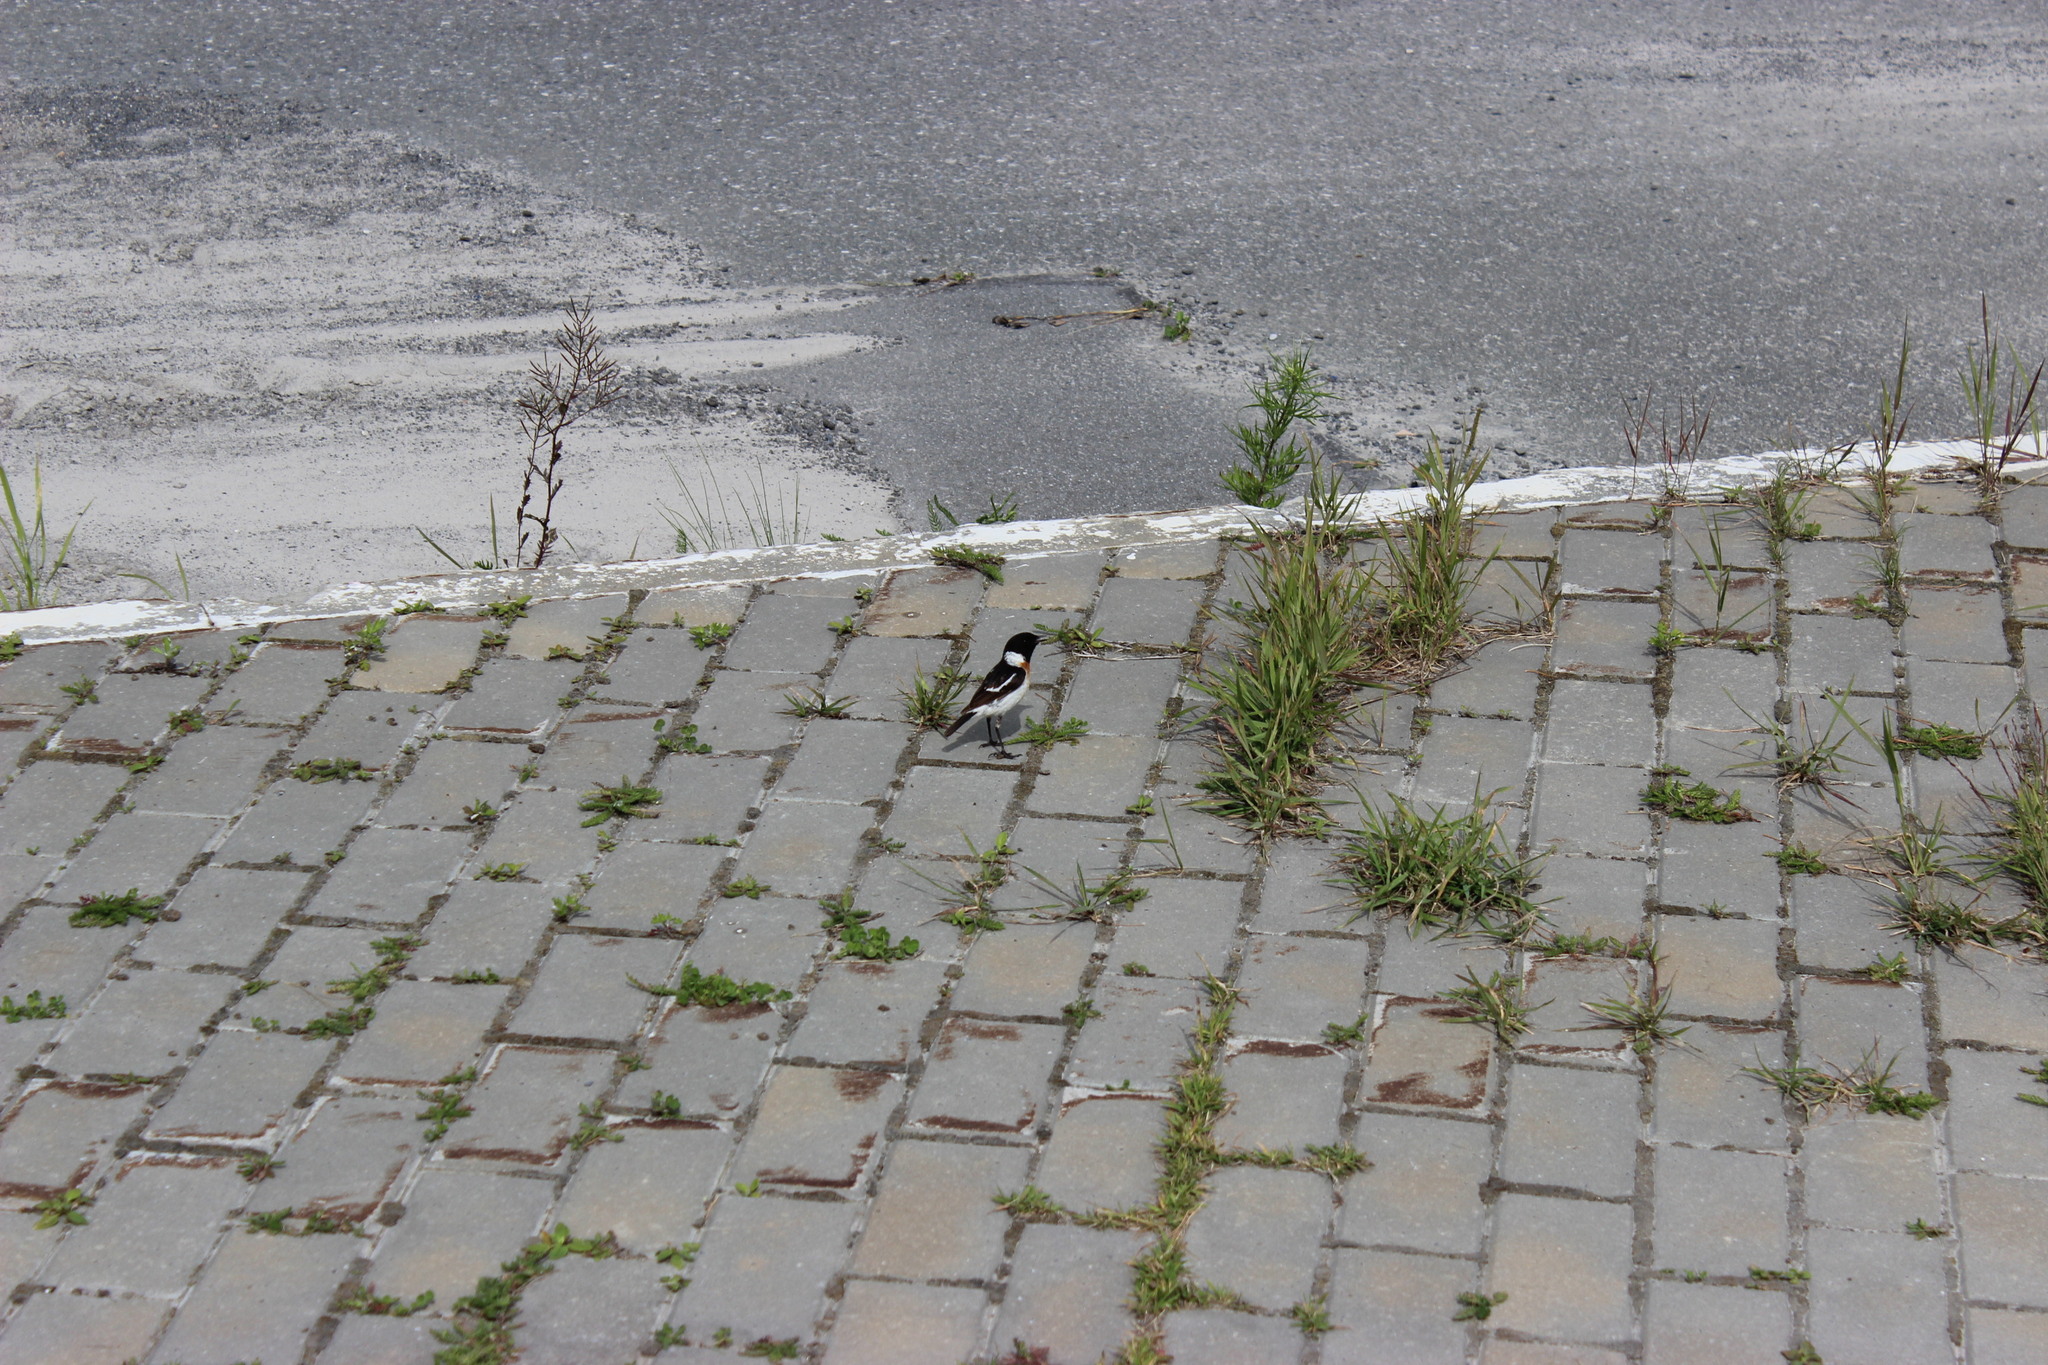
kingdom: Animalia
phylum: Chordata
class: Aves
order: Passeriformes
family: Muscicapidae
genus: Saxicola
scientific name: Saxicola maurus
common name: Siberian stonechat
